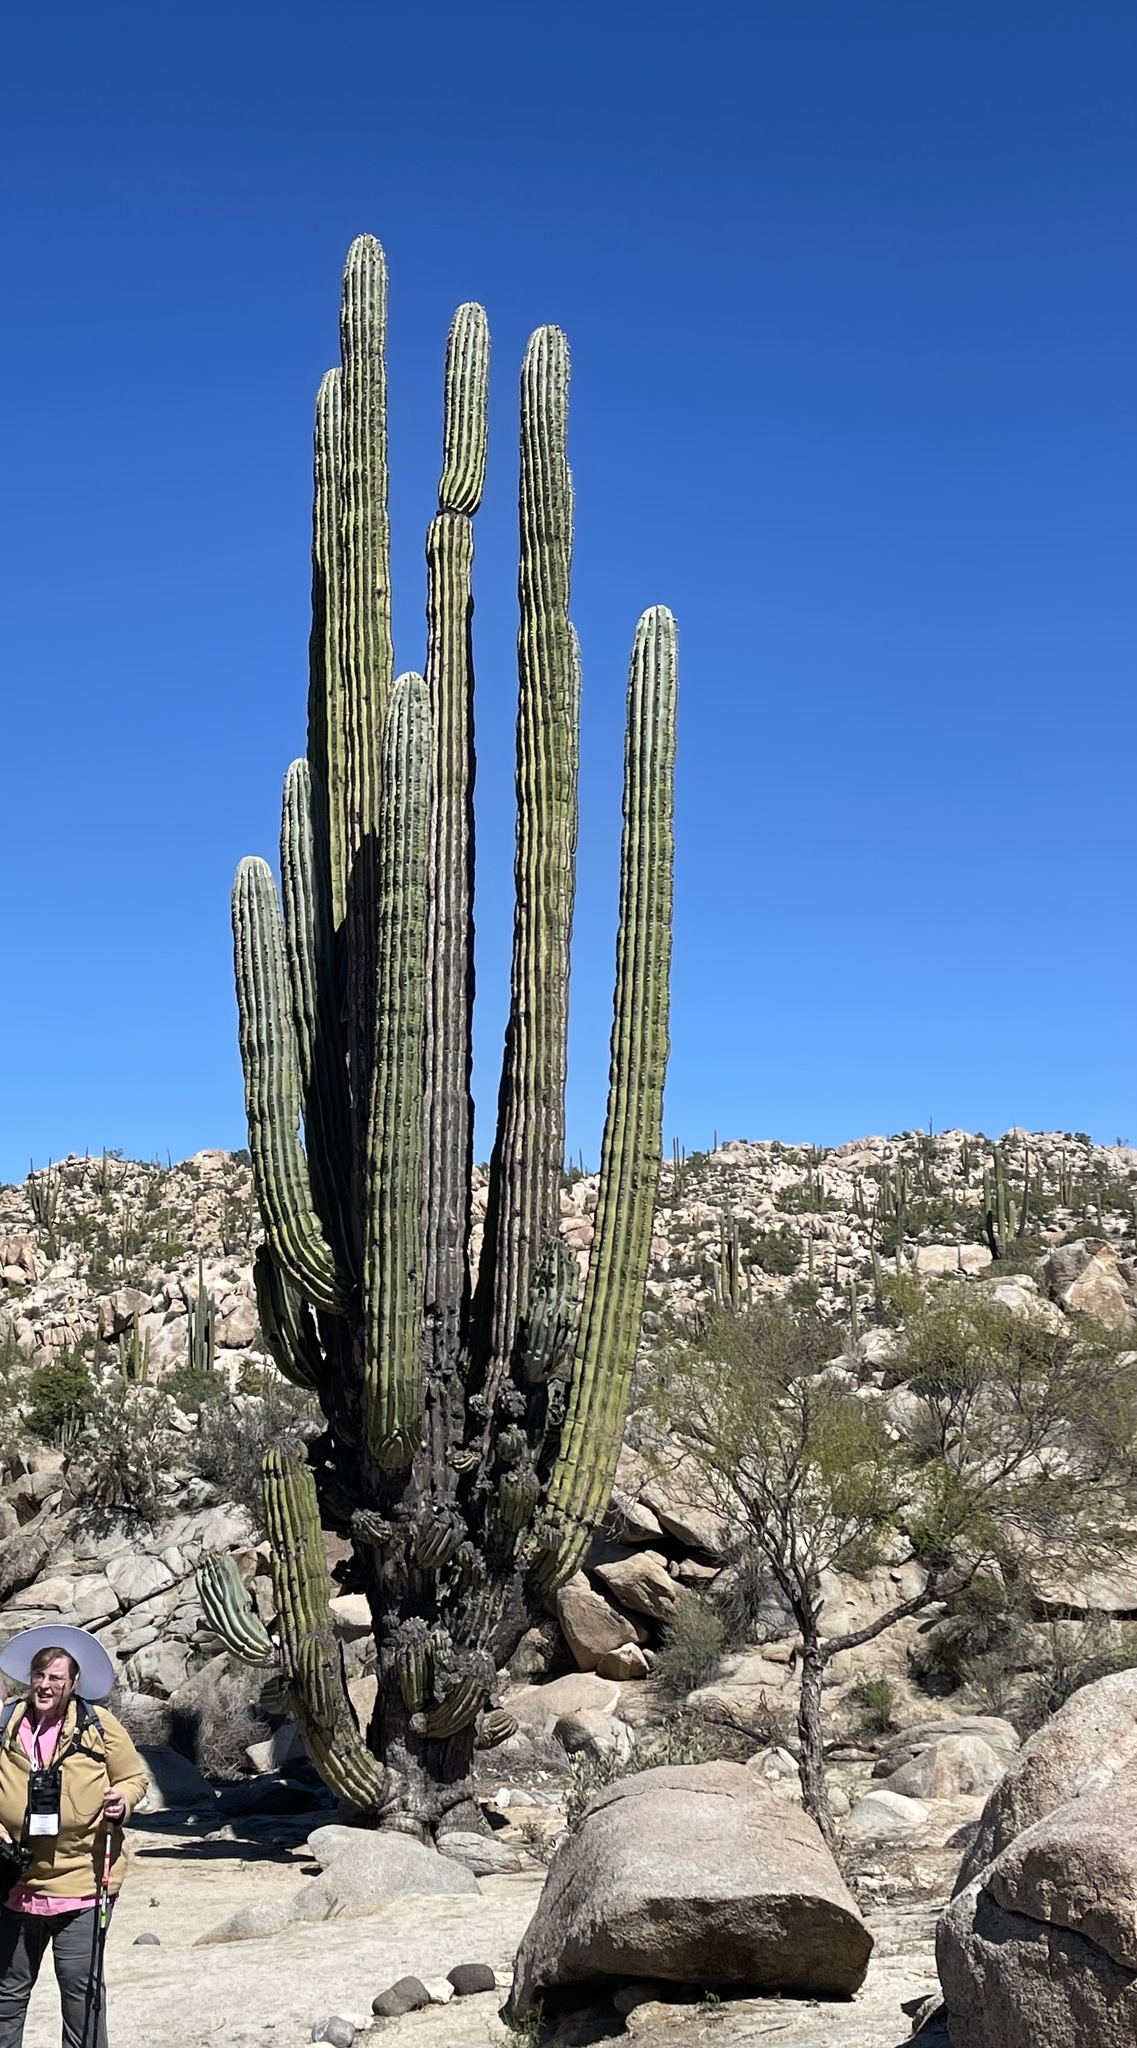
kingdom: Plantae
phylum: Tracheophyta
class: Magnoliopsida
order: Caryophyllales
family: Cactaceae
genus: Pachycereus
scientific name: Pachycereus pringlei
